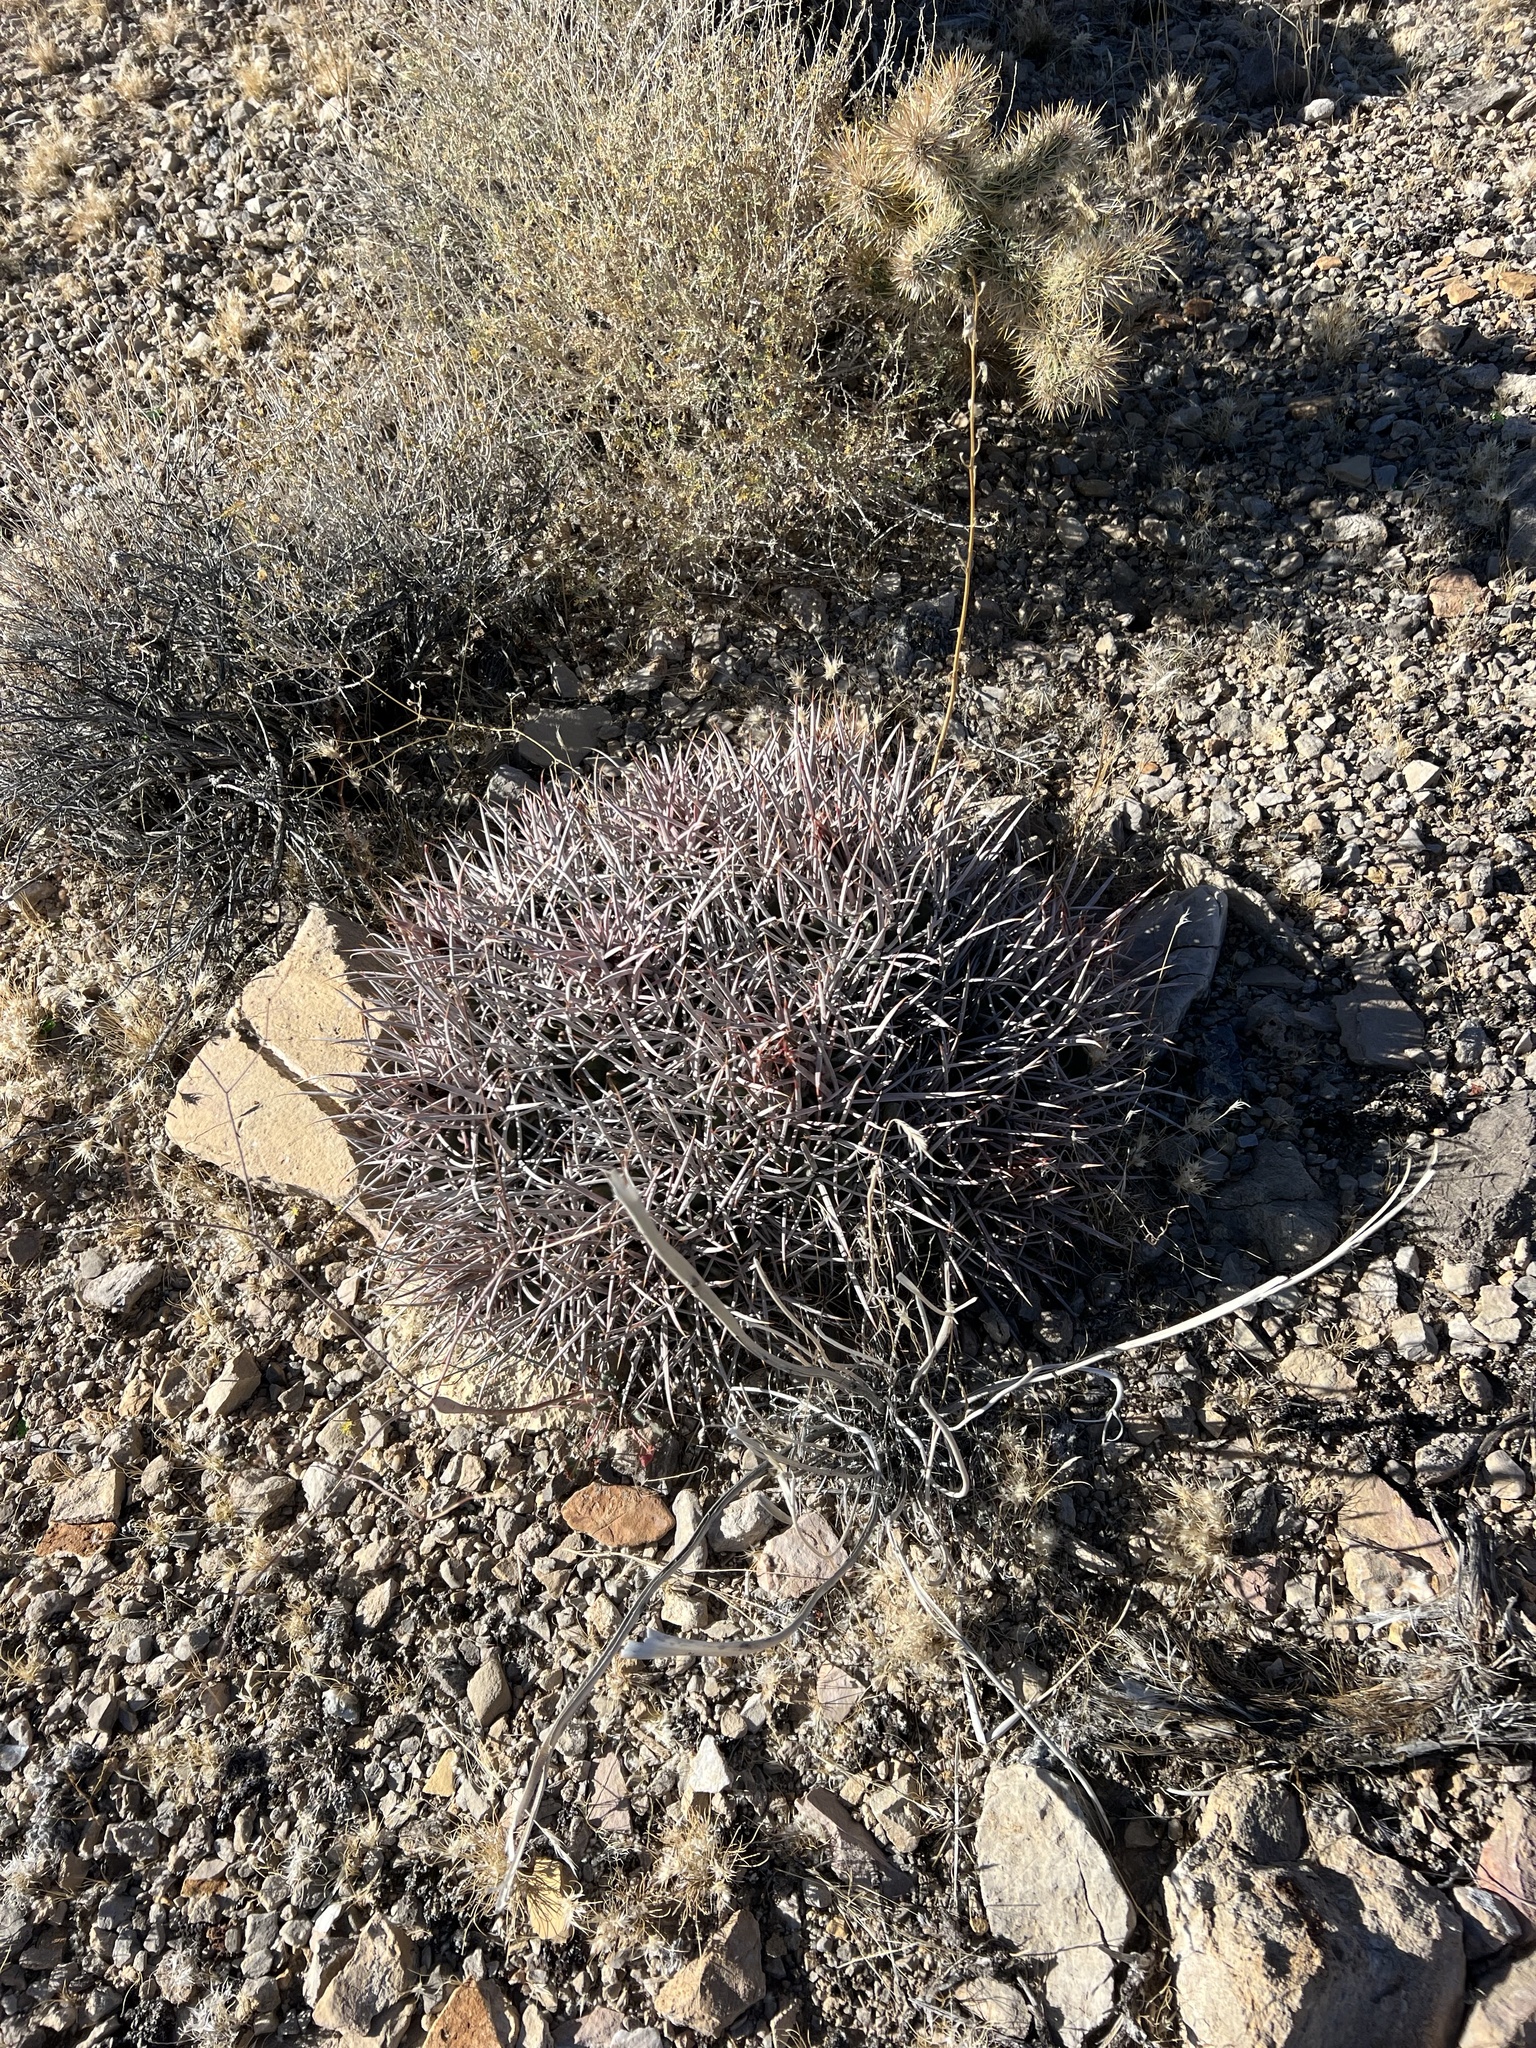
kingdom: Plantae
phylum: Tracheophyta
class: Magnoliopsida
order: Caryophyllales
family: Cactaceae
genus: Echinocactus
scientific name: Echinocactus polycephalus
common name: Cottontop cactus
